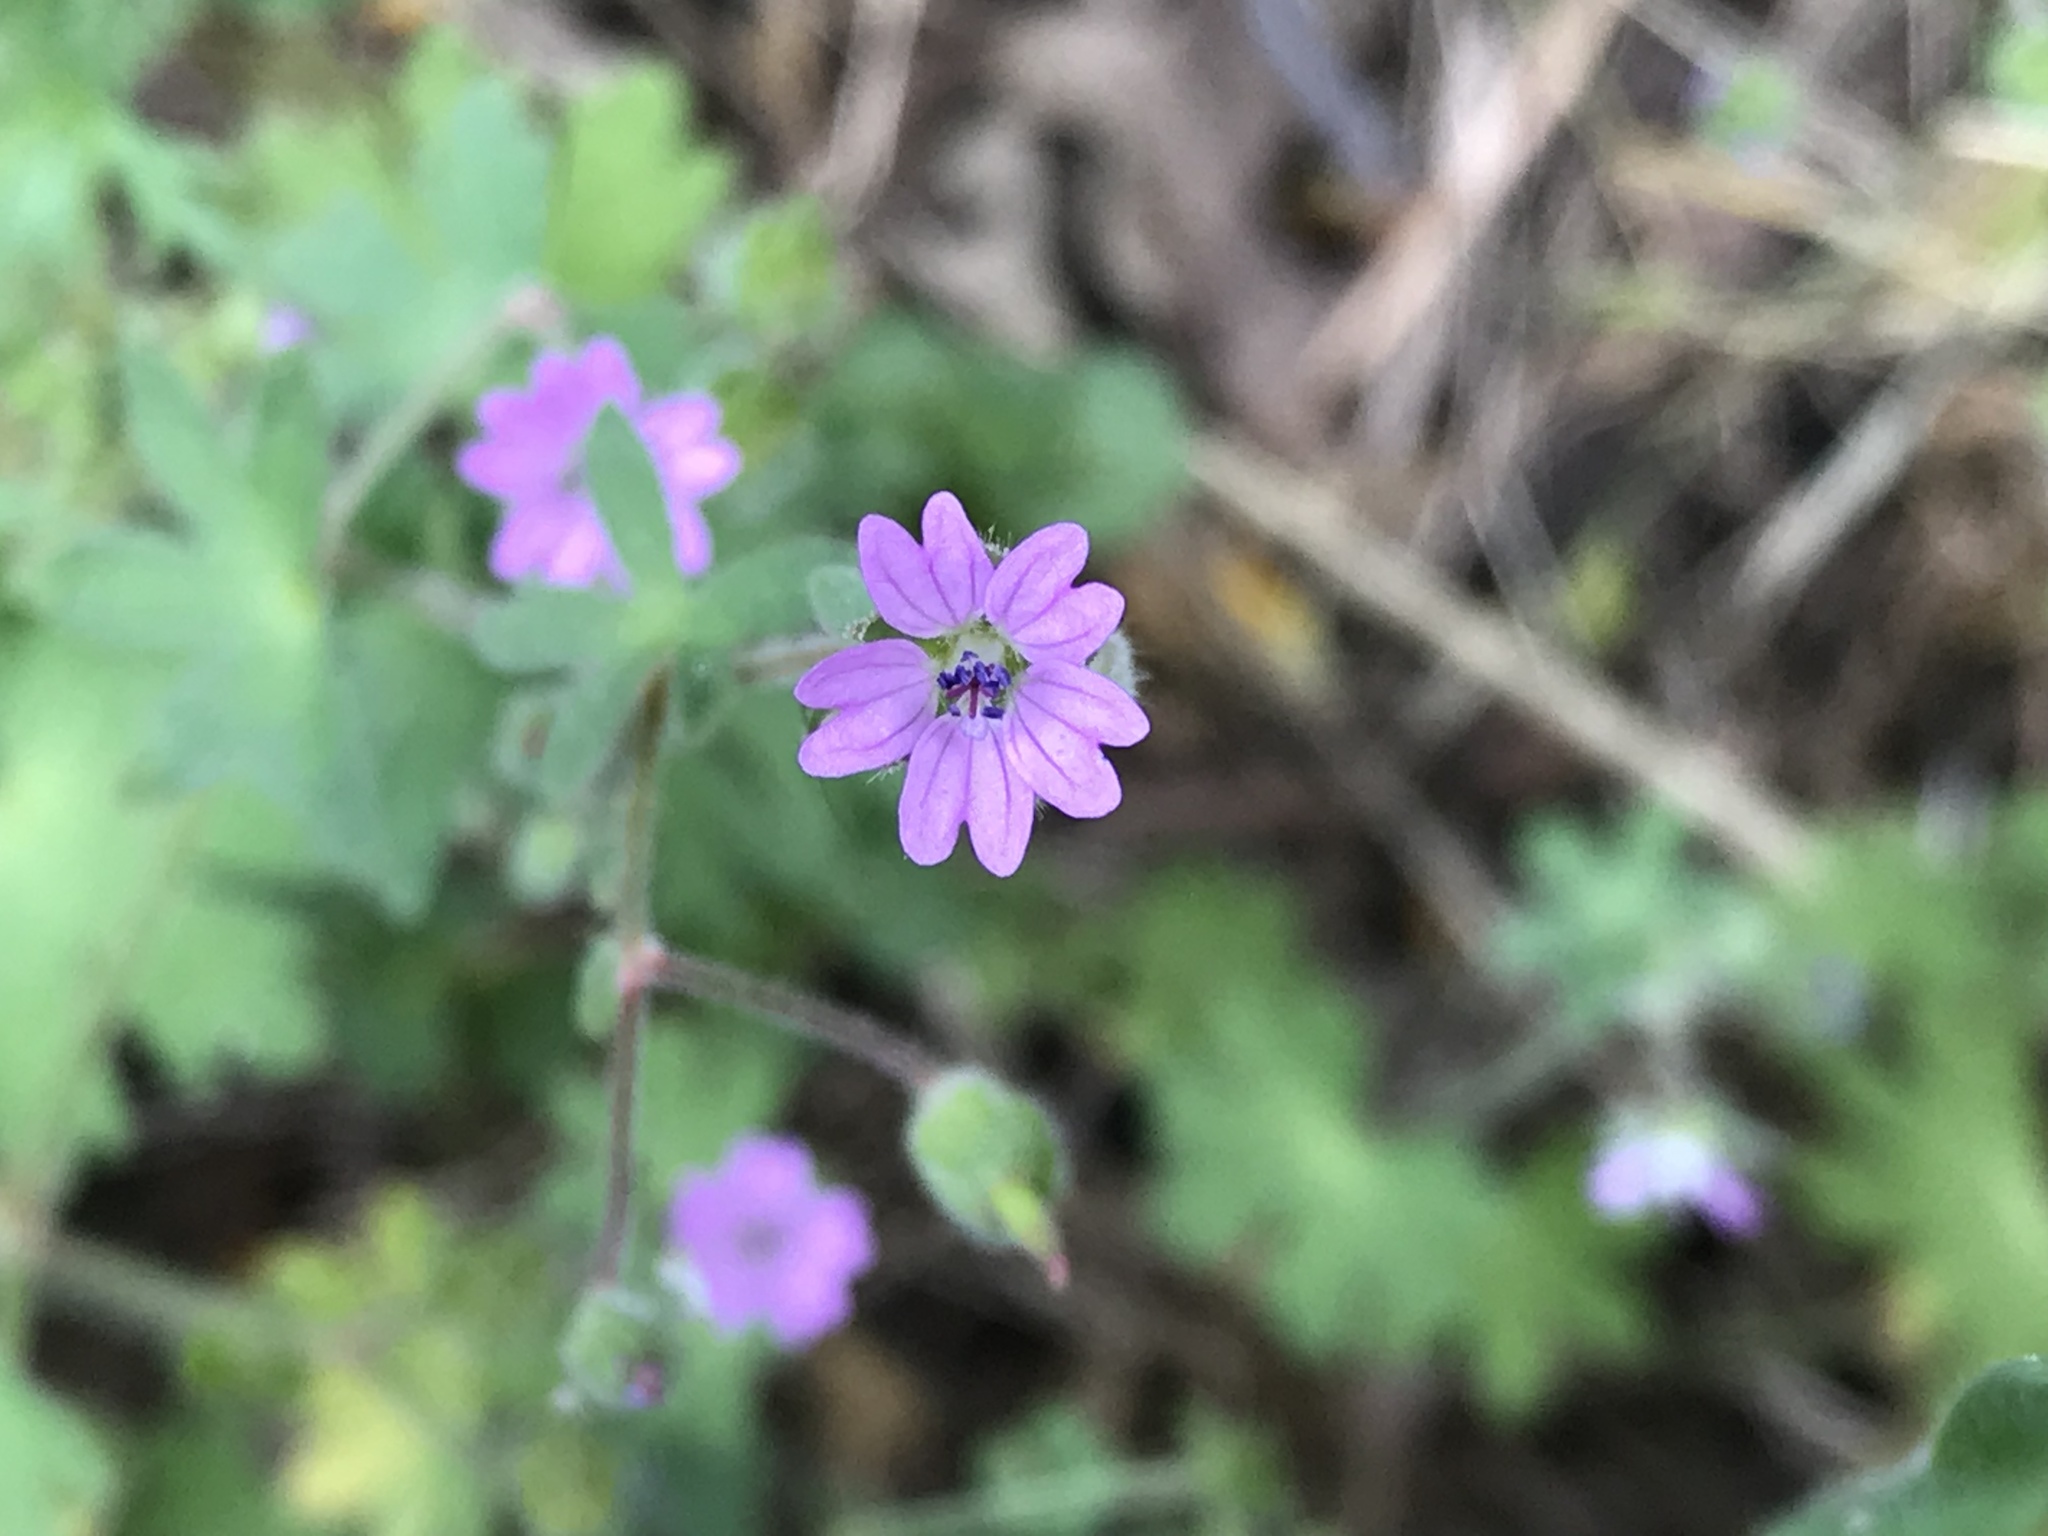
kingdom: Plantae
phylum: Tracheophyta
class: Magnoliopsida
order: Geraniales
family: Geraniaceae
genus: Geranium
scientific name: Geranium molle
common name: Dove's-foot crane's-bill
